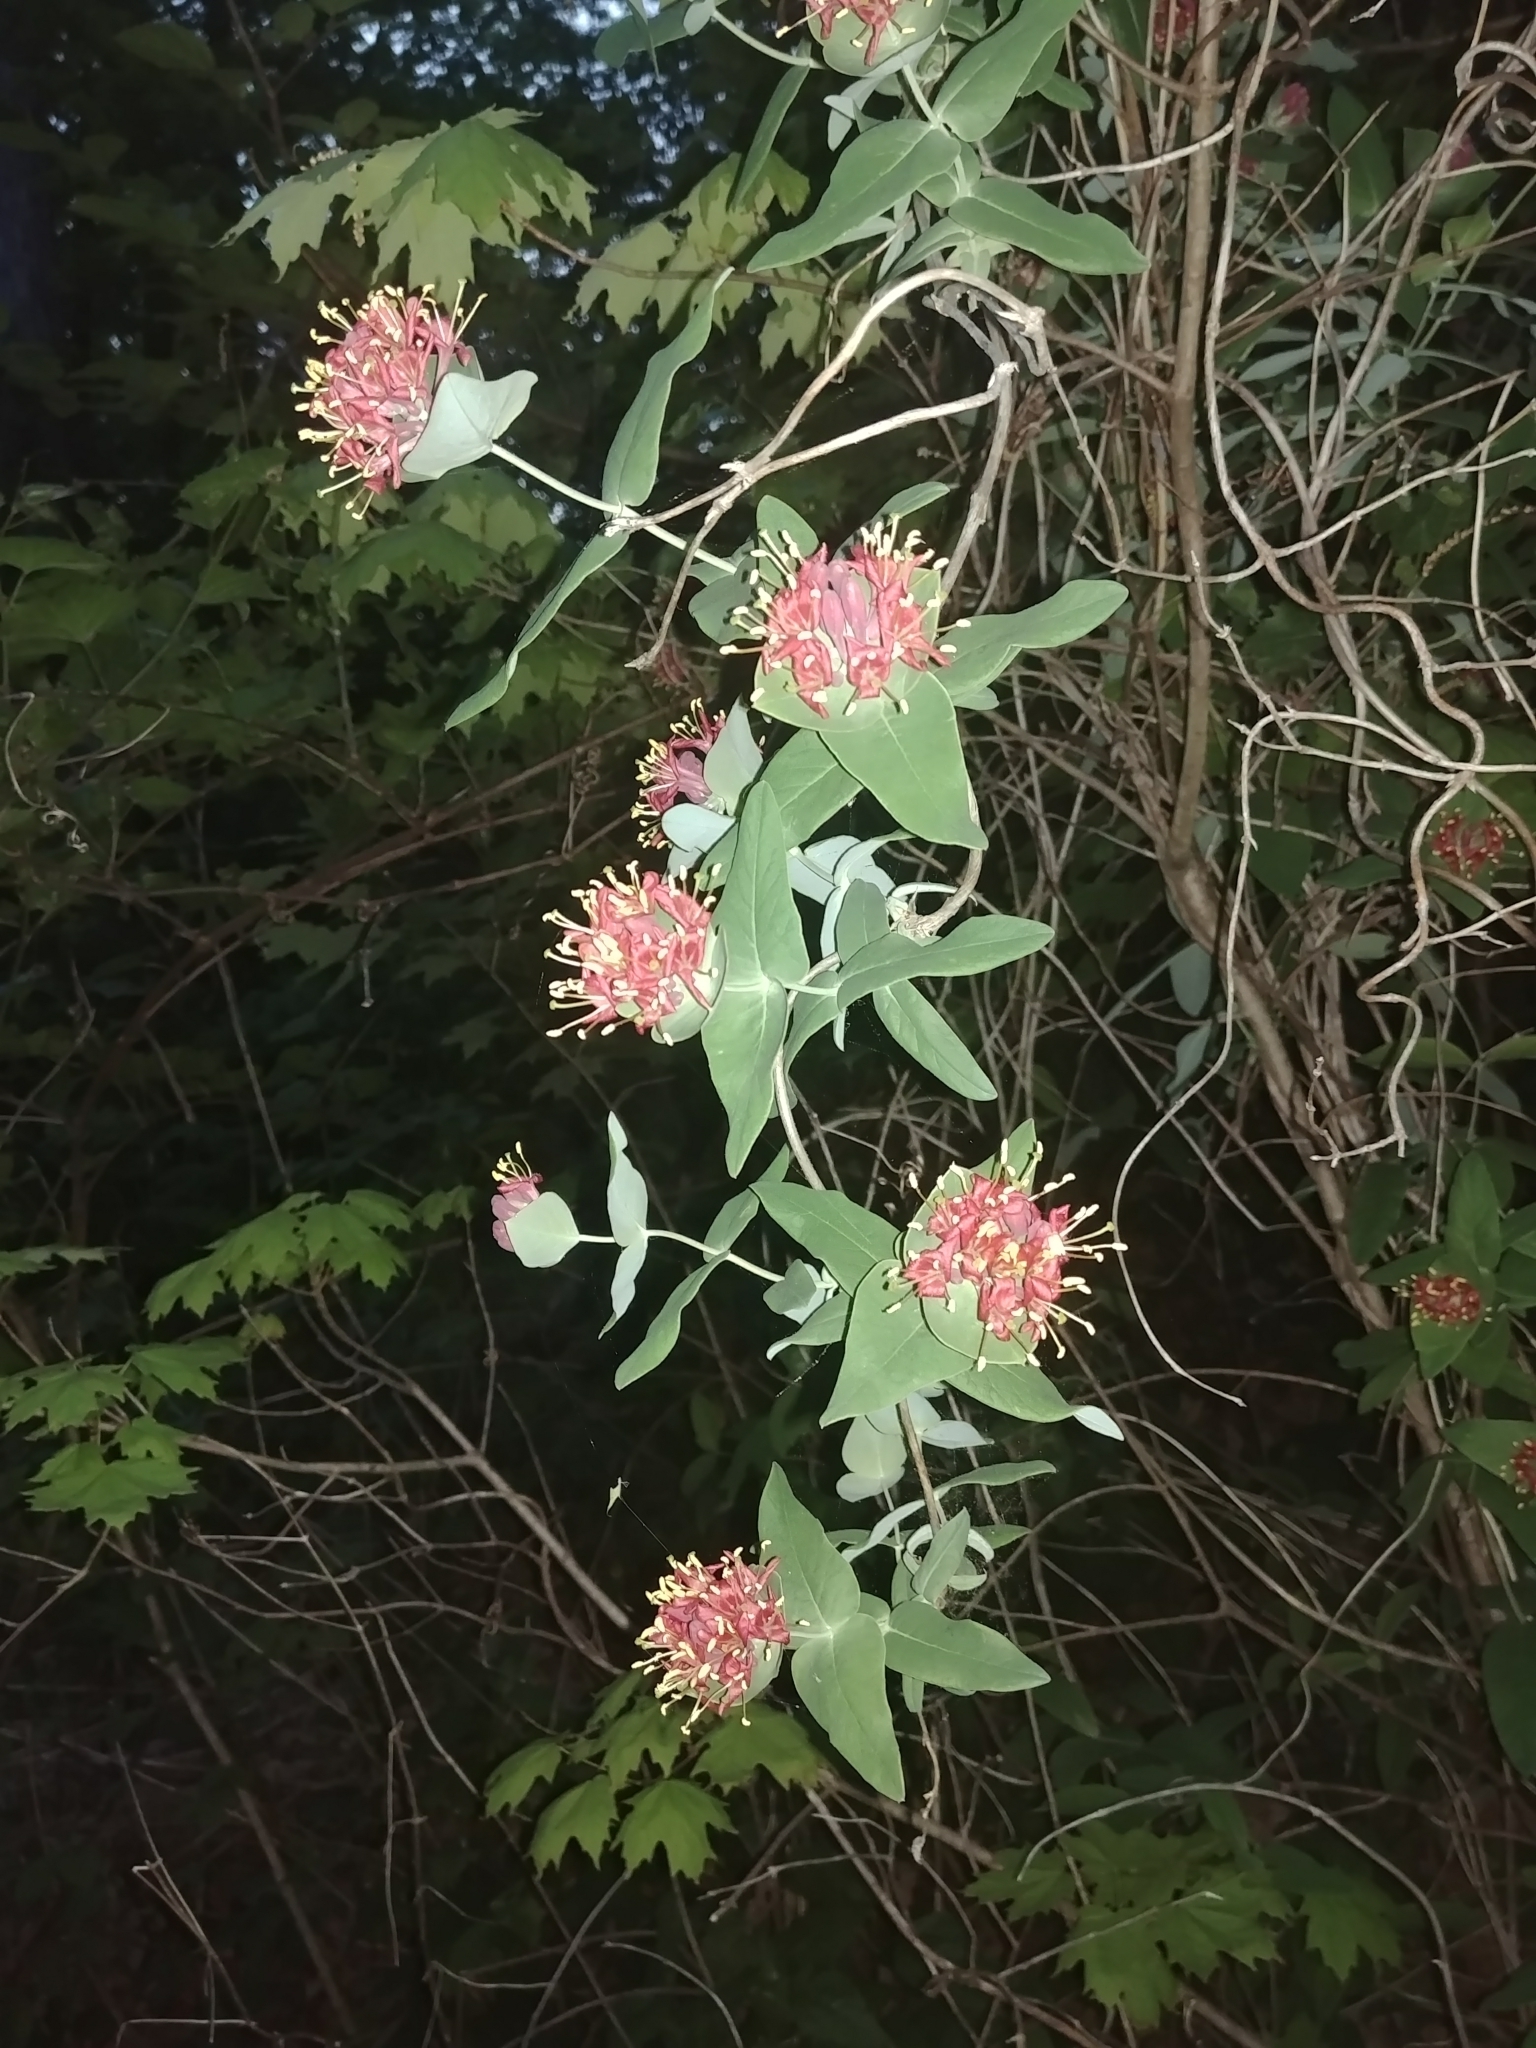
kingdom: Plantae
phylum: Tracheophyta
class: Magnoliopsida
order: Dipsacales
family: Caprifoliaceae
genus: Lonicera
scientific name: Lonicera dioica
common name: Limber honeysuckle
